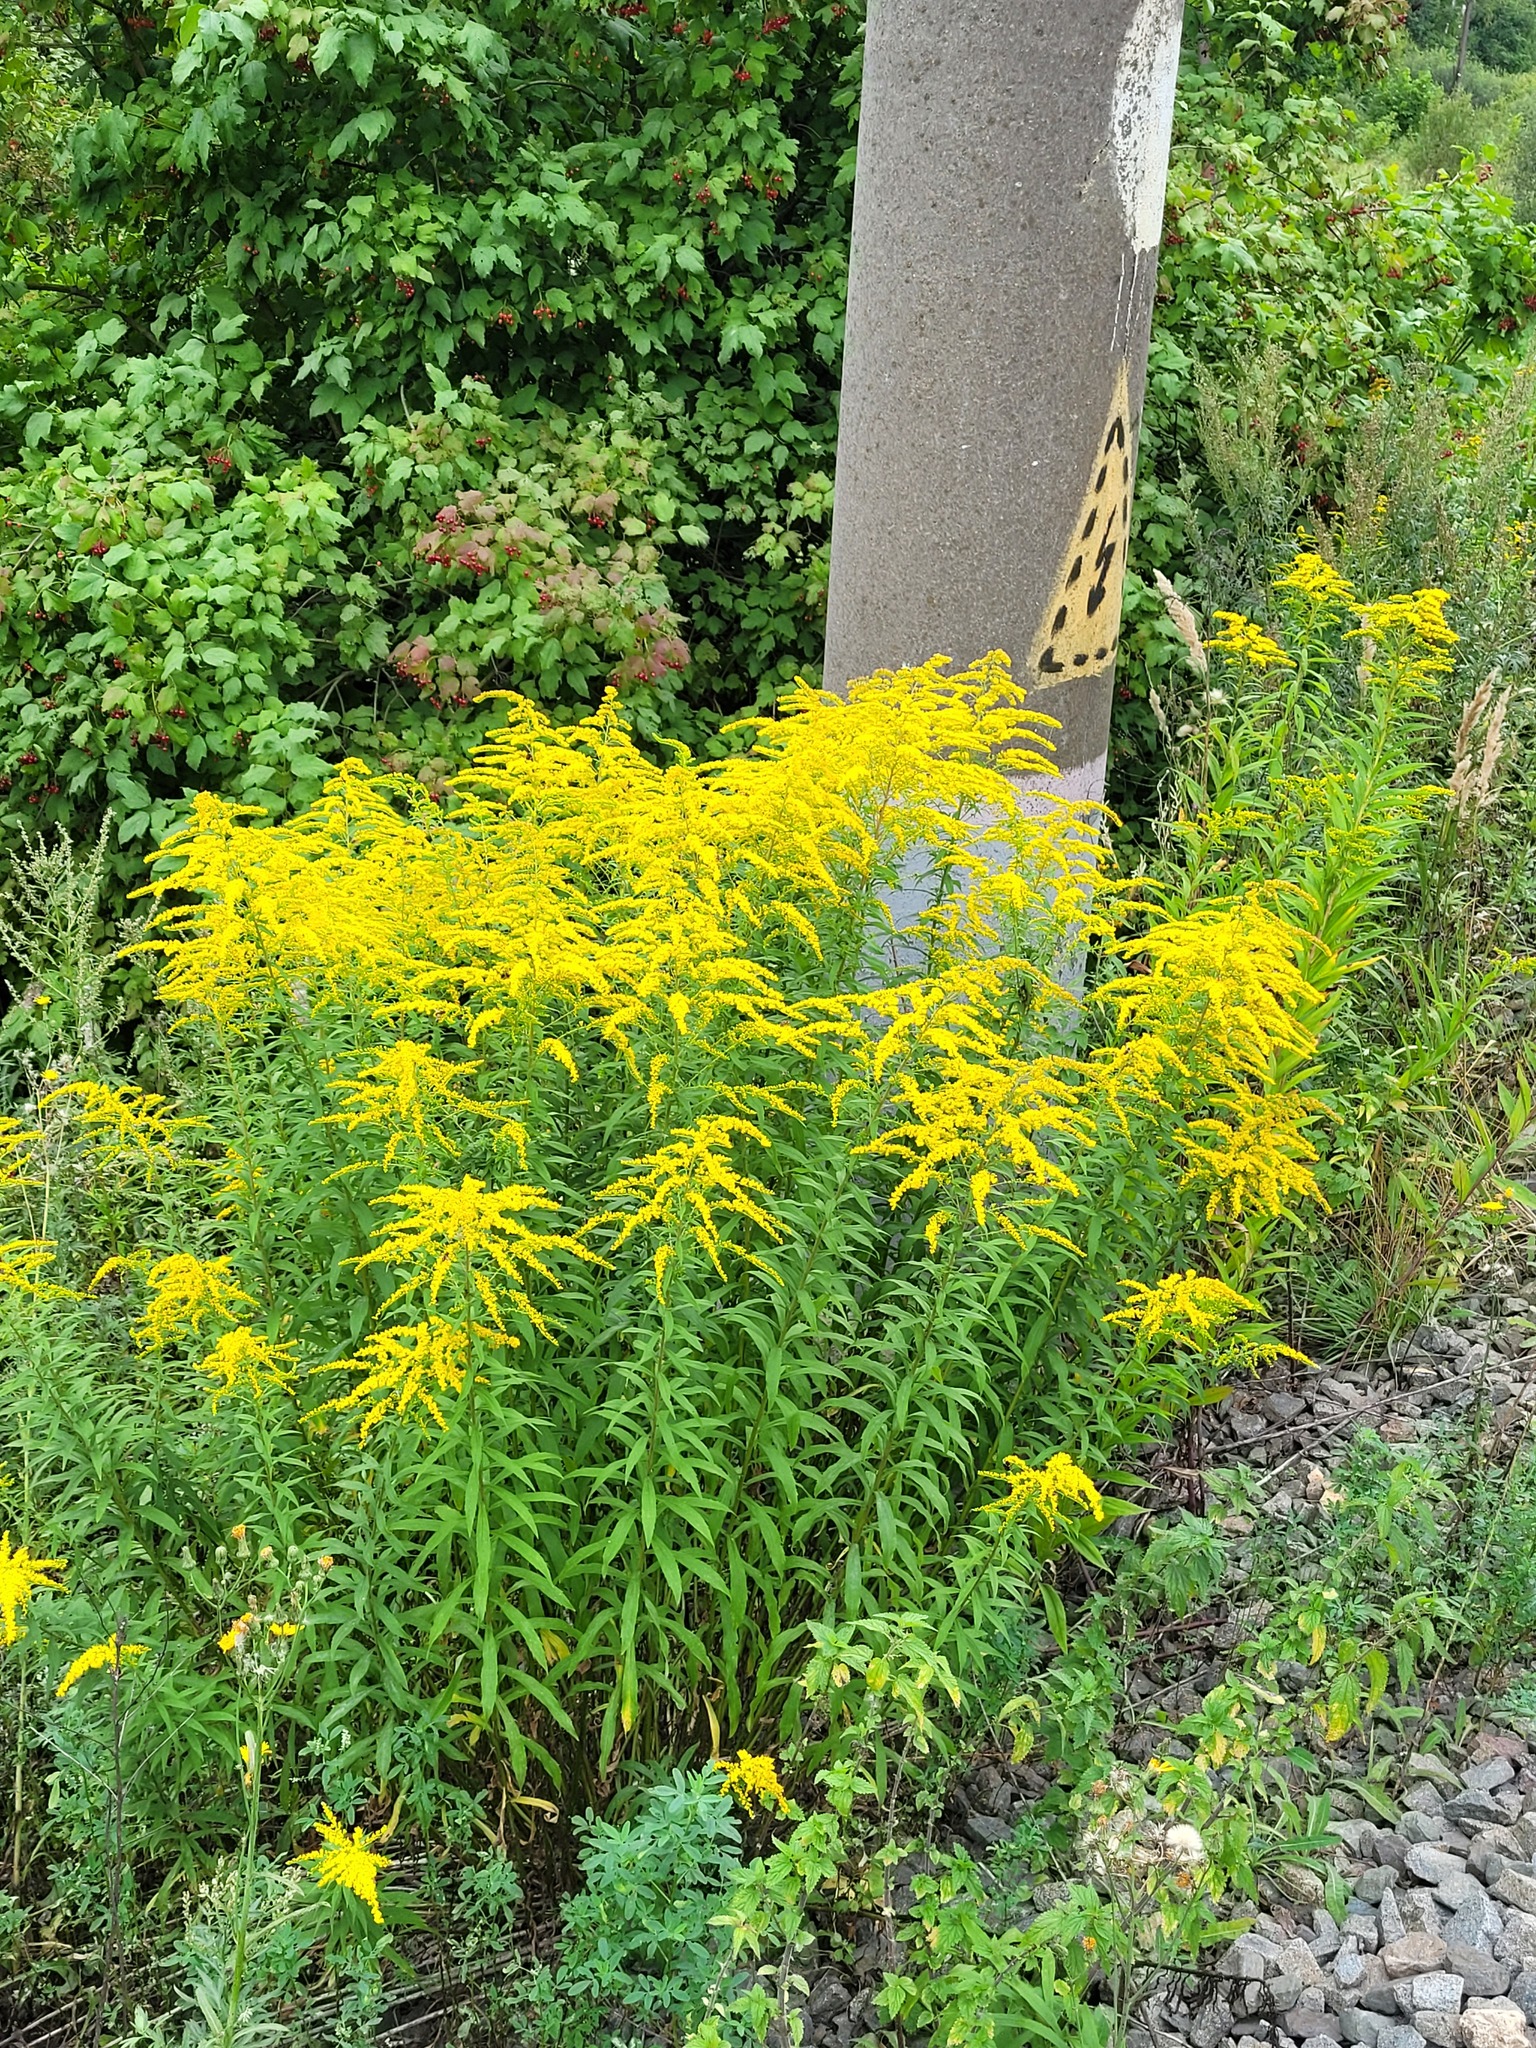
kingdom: Plantae
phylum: Tracheophyta
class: Magnoliopsida
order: Asterales
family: Asteraceae
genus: Solidago
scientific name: Solidago canadensis
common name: Canada goldenrod
